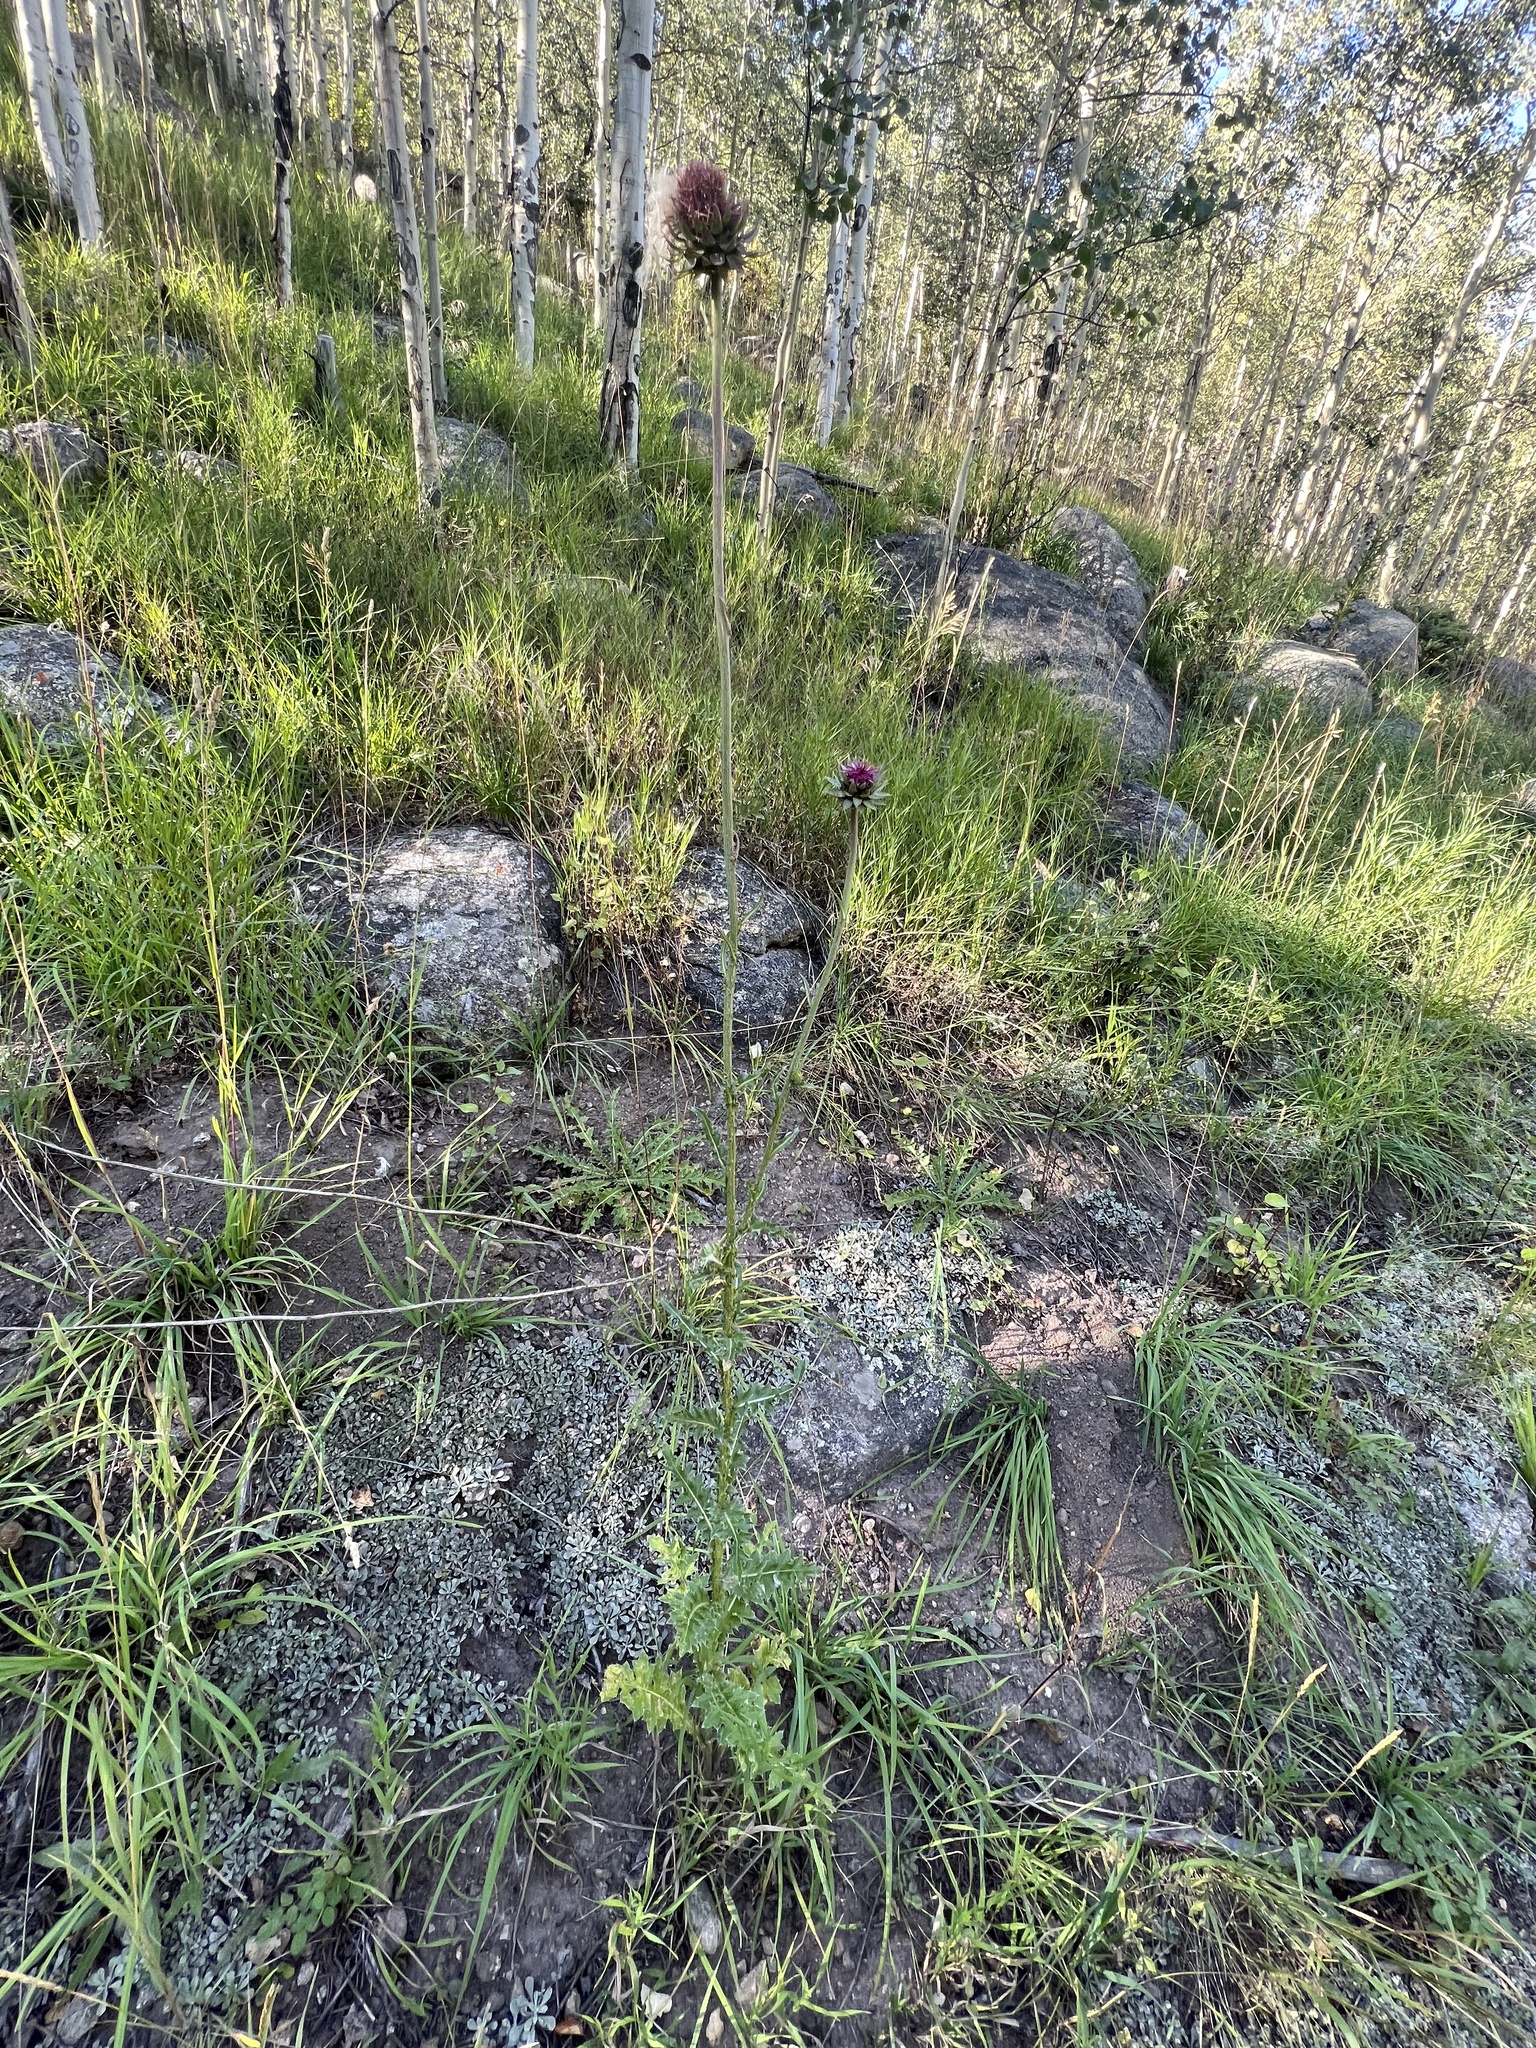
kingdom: Plantae
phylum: Tracheophyta
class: Magnoliopsida
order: Asterales
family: Asteraceae
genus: Carduus
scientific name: Carduus nutans
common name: Musk thistle
